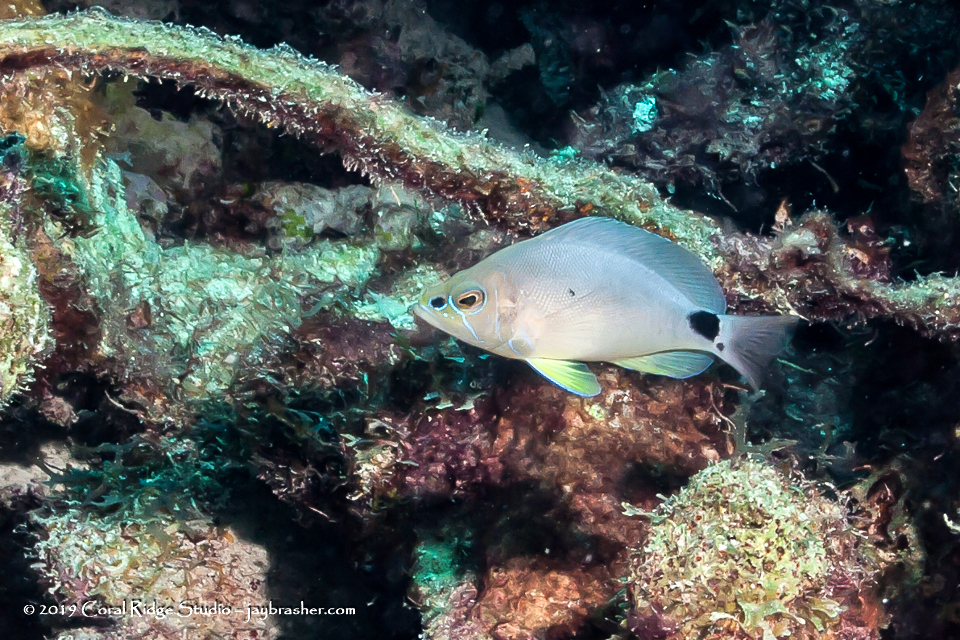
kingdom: Animalia
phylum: Chordata
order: Perciformes
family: Serranidae
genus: Hypoplectrus
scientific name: Hypoplectrus unicolor
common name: Butter hamlet
